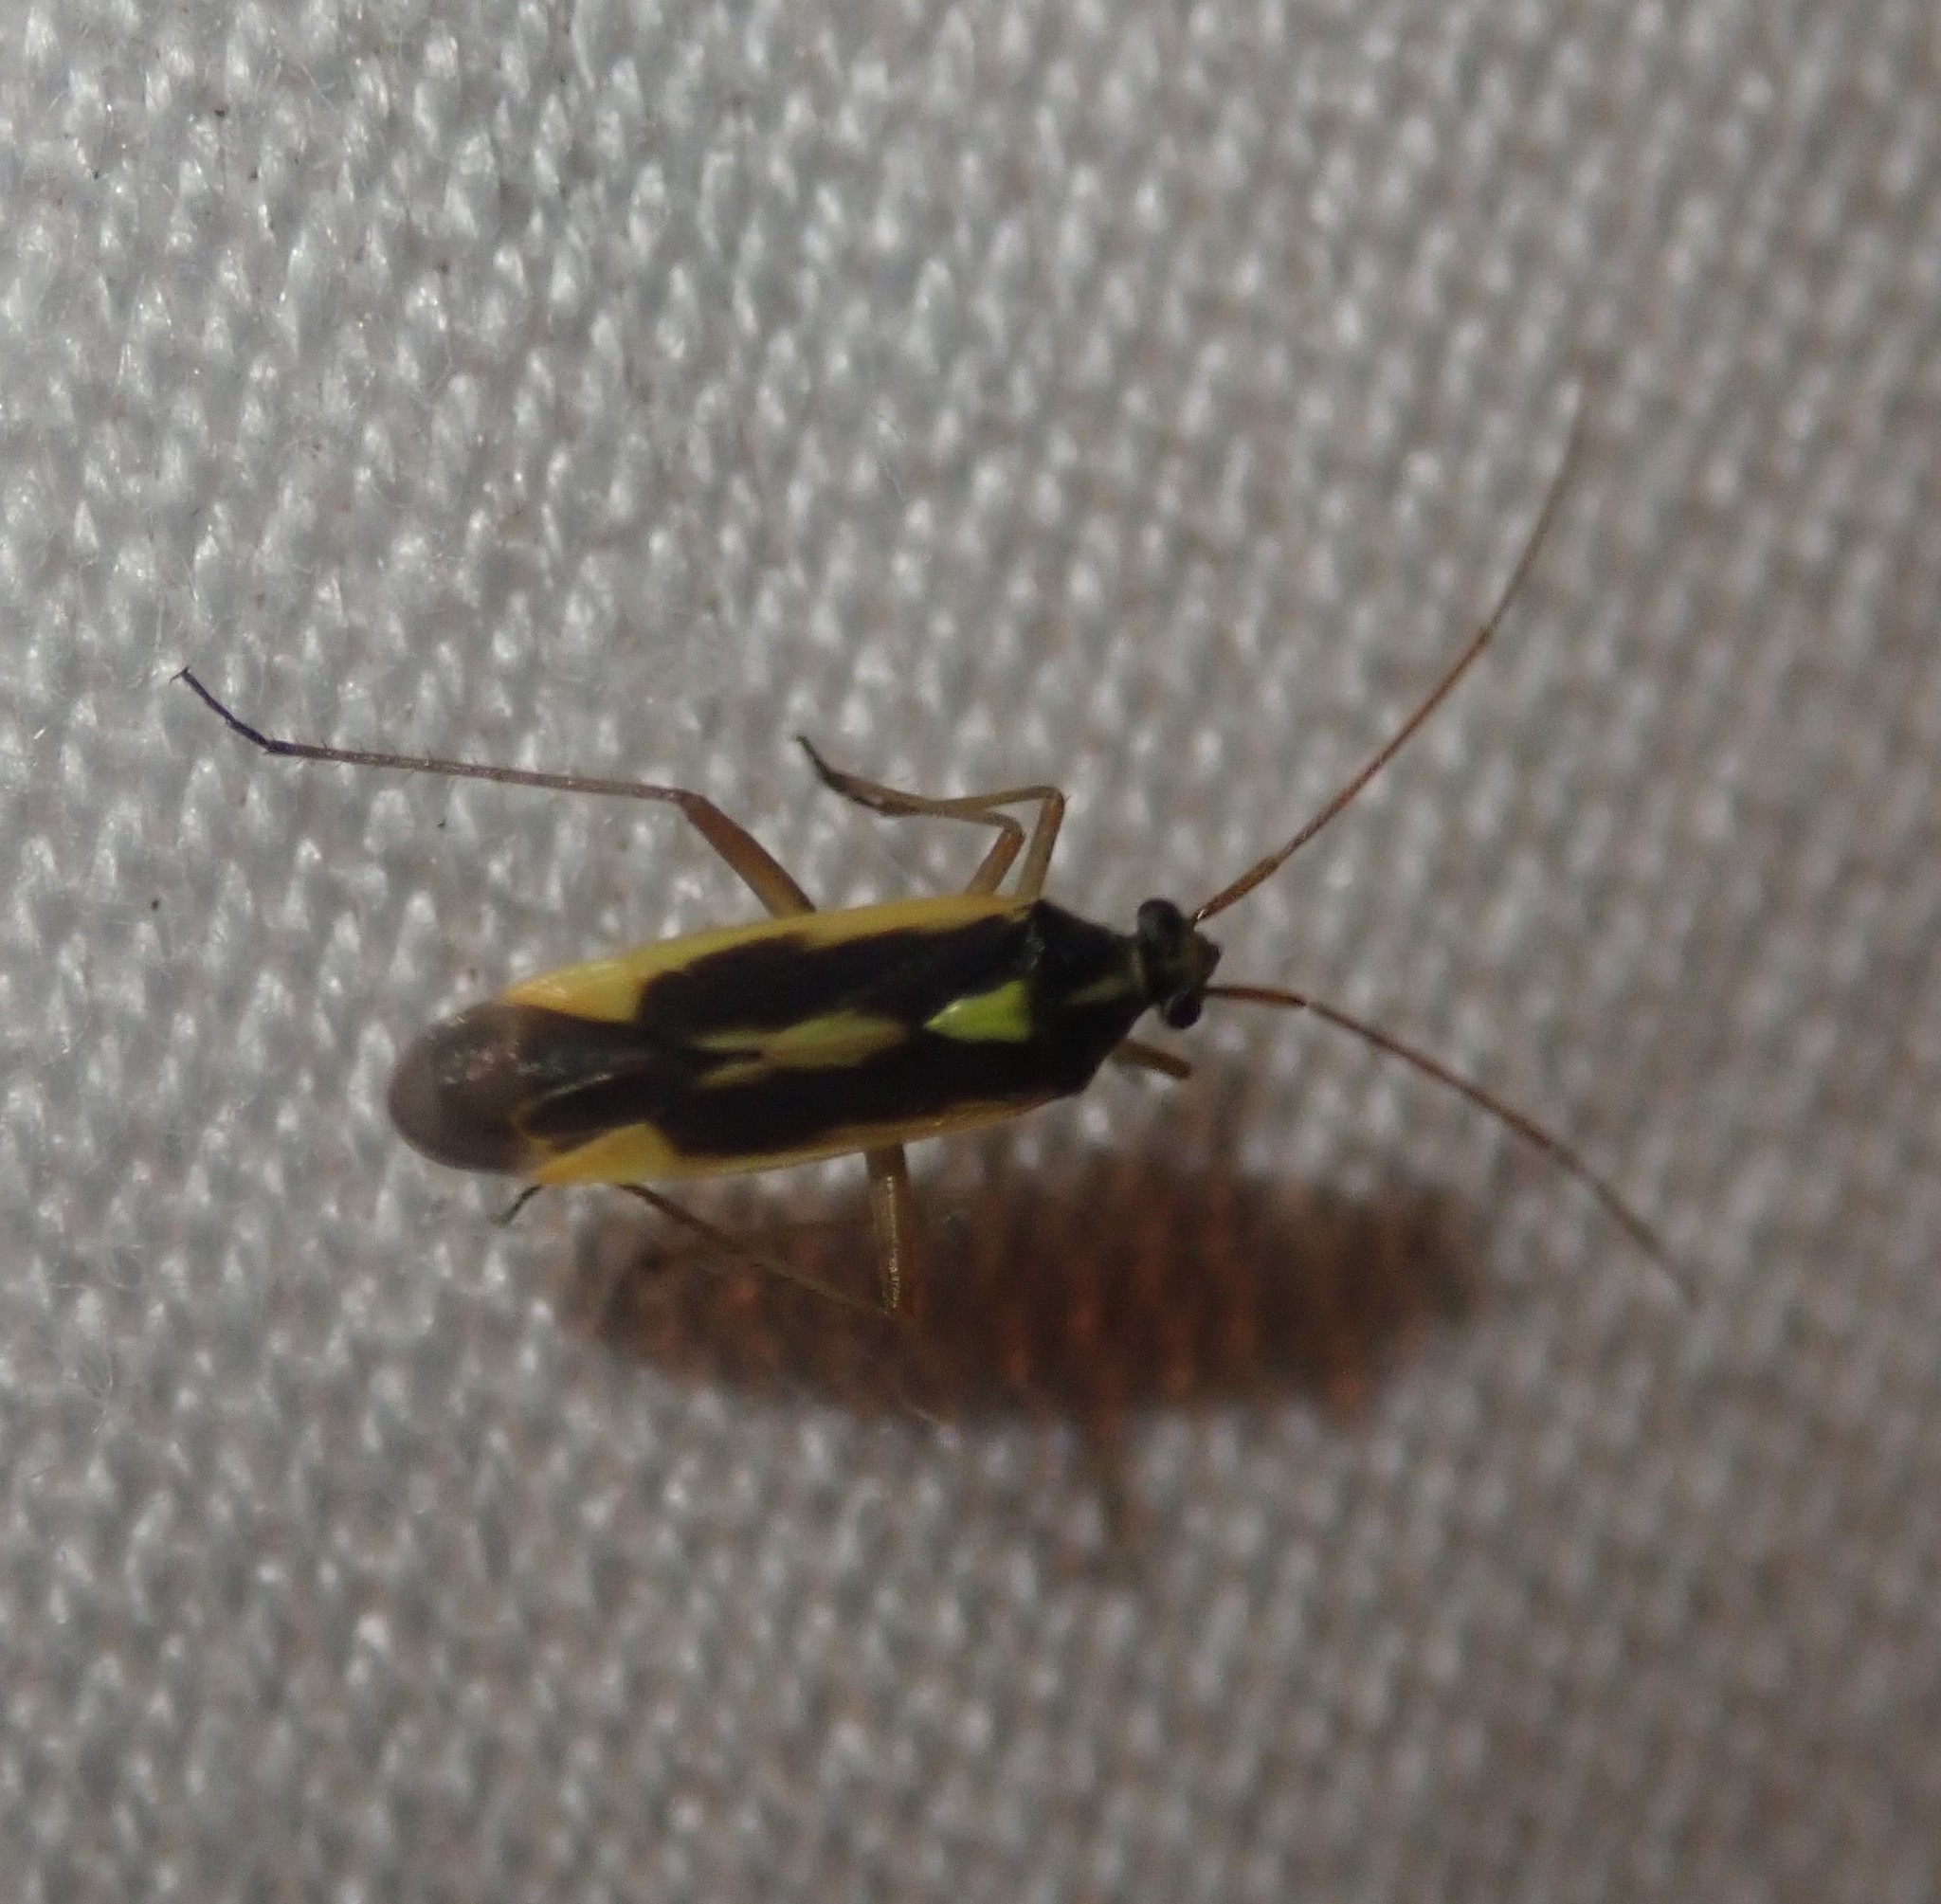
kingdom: Animalia
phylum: Arthropoda
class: Insecta
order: Hemiptera
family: Miridae
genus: Stenotus
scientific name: Stenotus binotatus
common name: Plant bug
